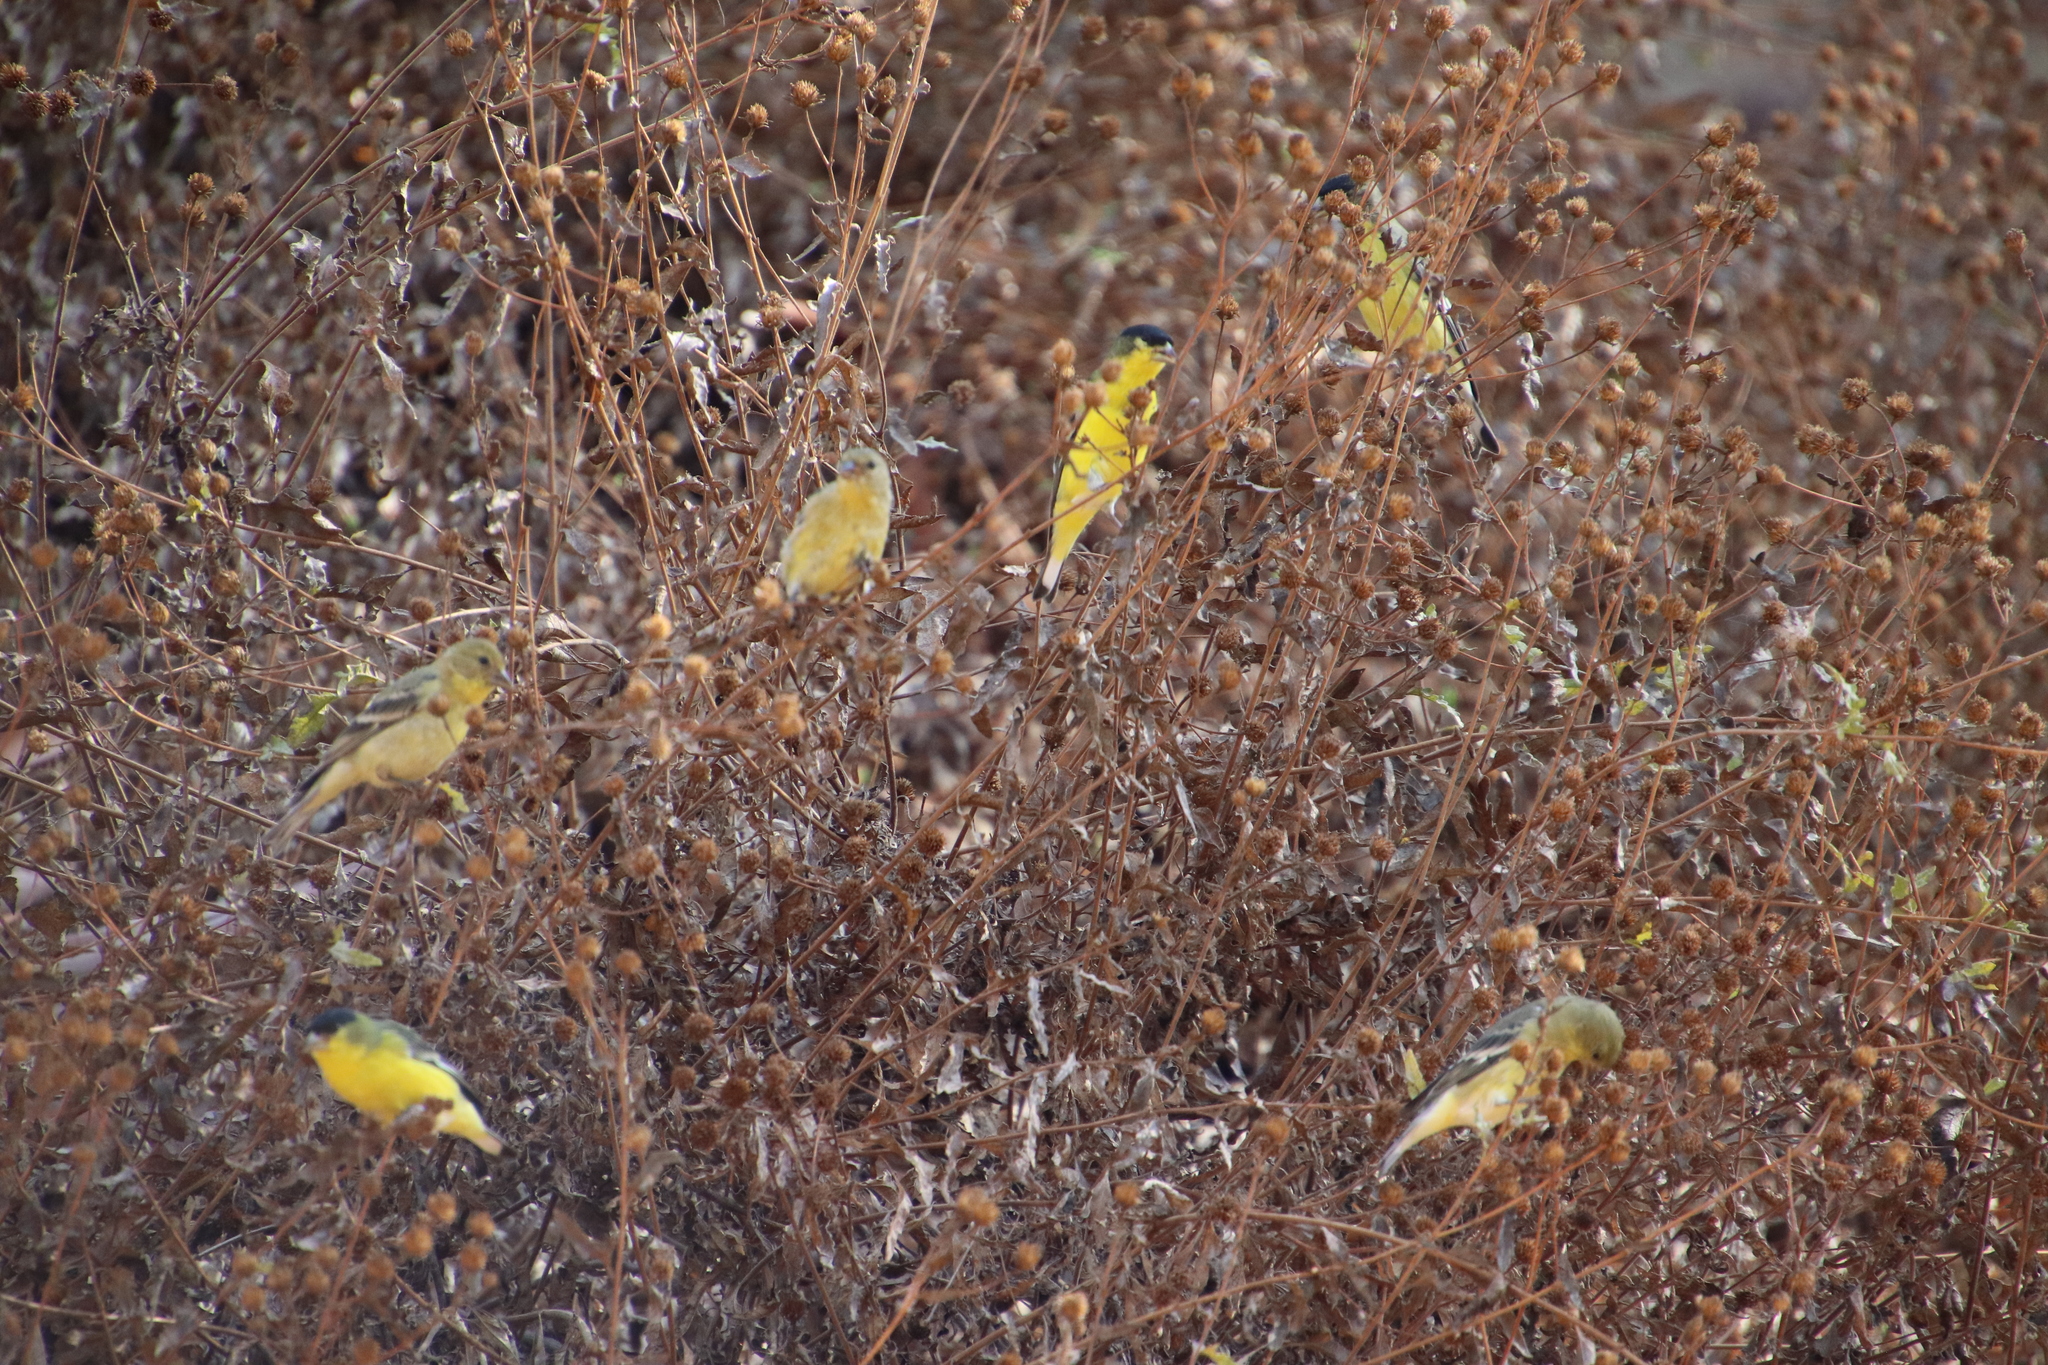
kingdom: Animalia
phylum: Chordata
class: Aves
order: Passeriformes
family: Fringillidae
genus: Spinus
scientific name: Spinus psaltria
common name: Lesser goldfinch
